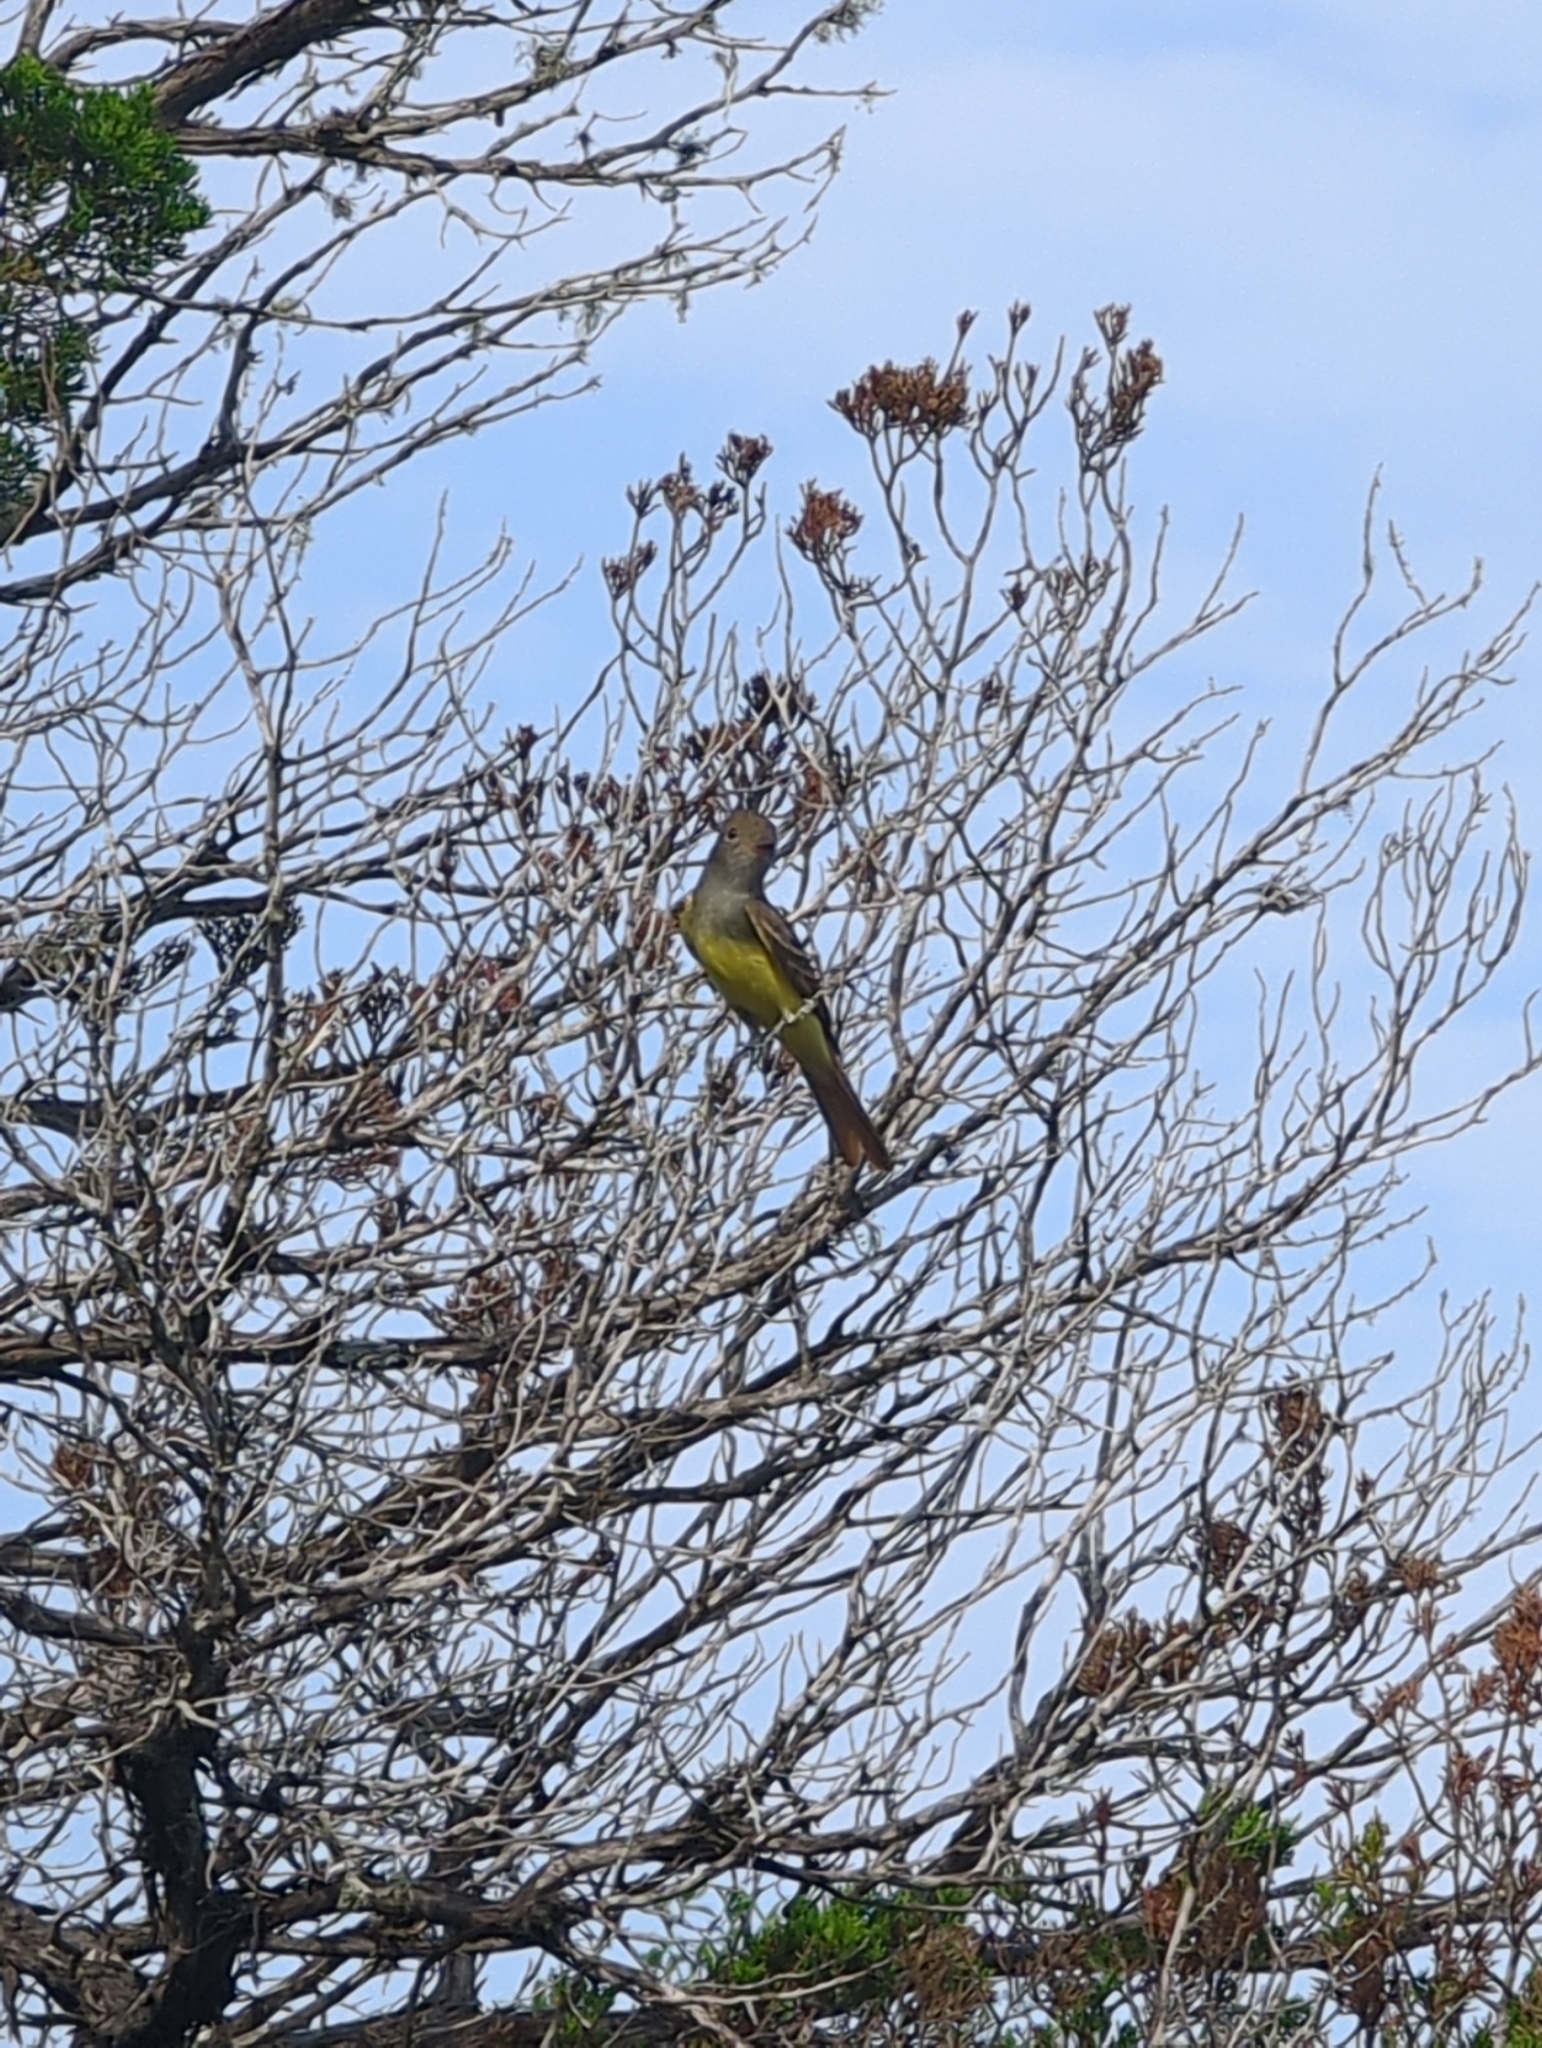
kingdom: Animalia
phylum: Chordata
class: Aves
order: Passeriformes
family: Tyrannidae
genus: Myiarchus
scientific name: Myiarchus crinitus
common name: Great crested flycatcher
